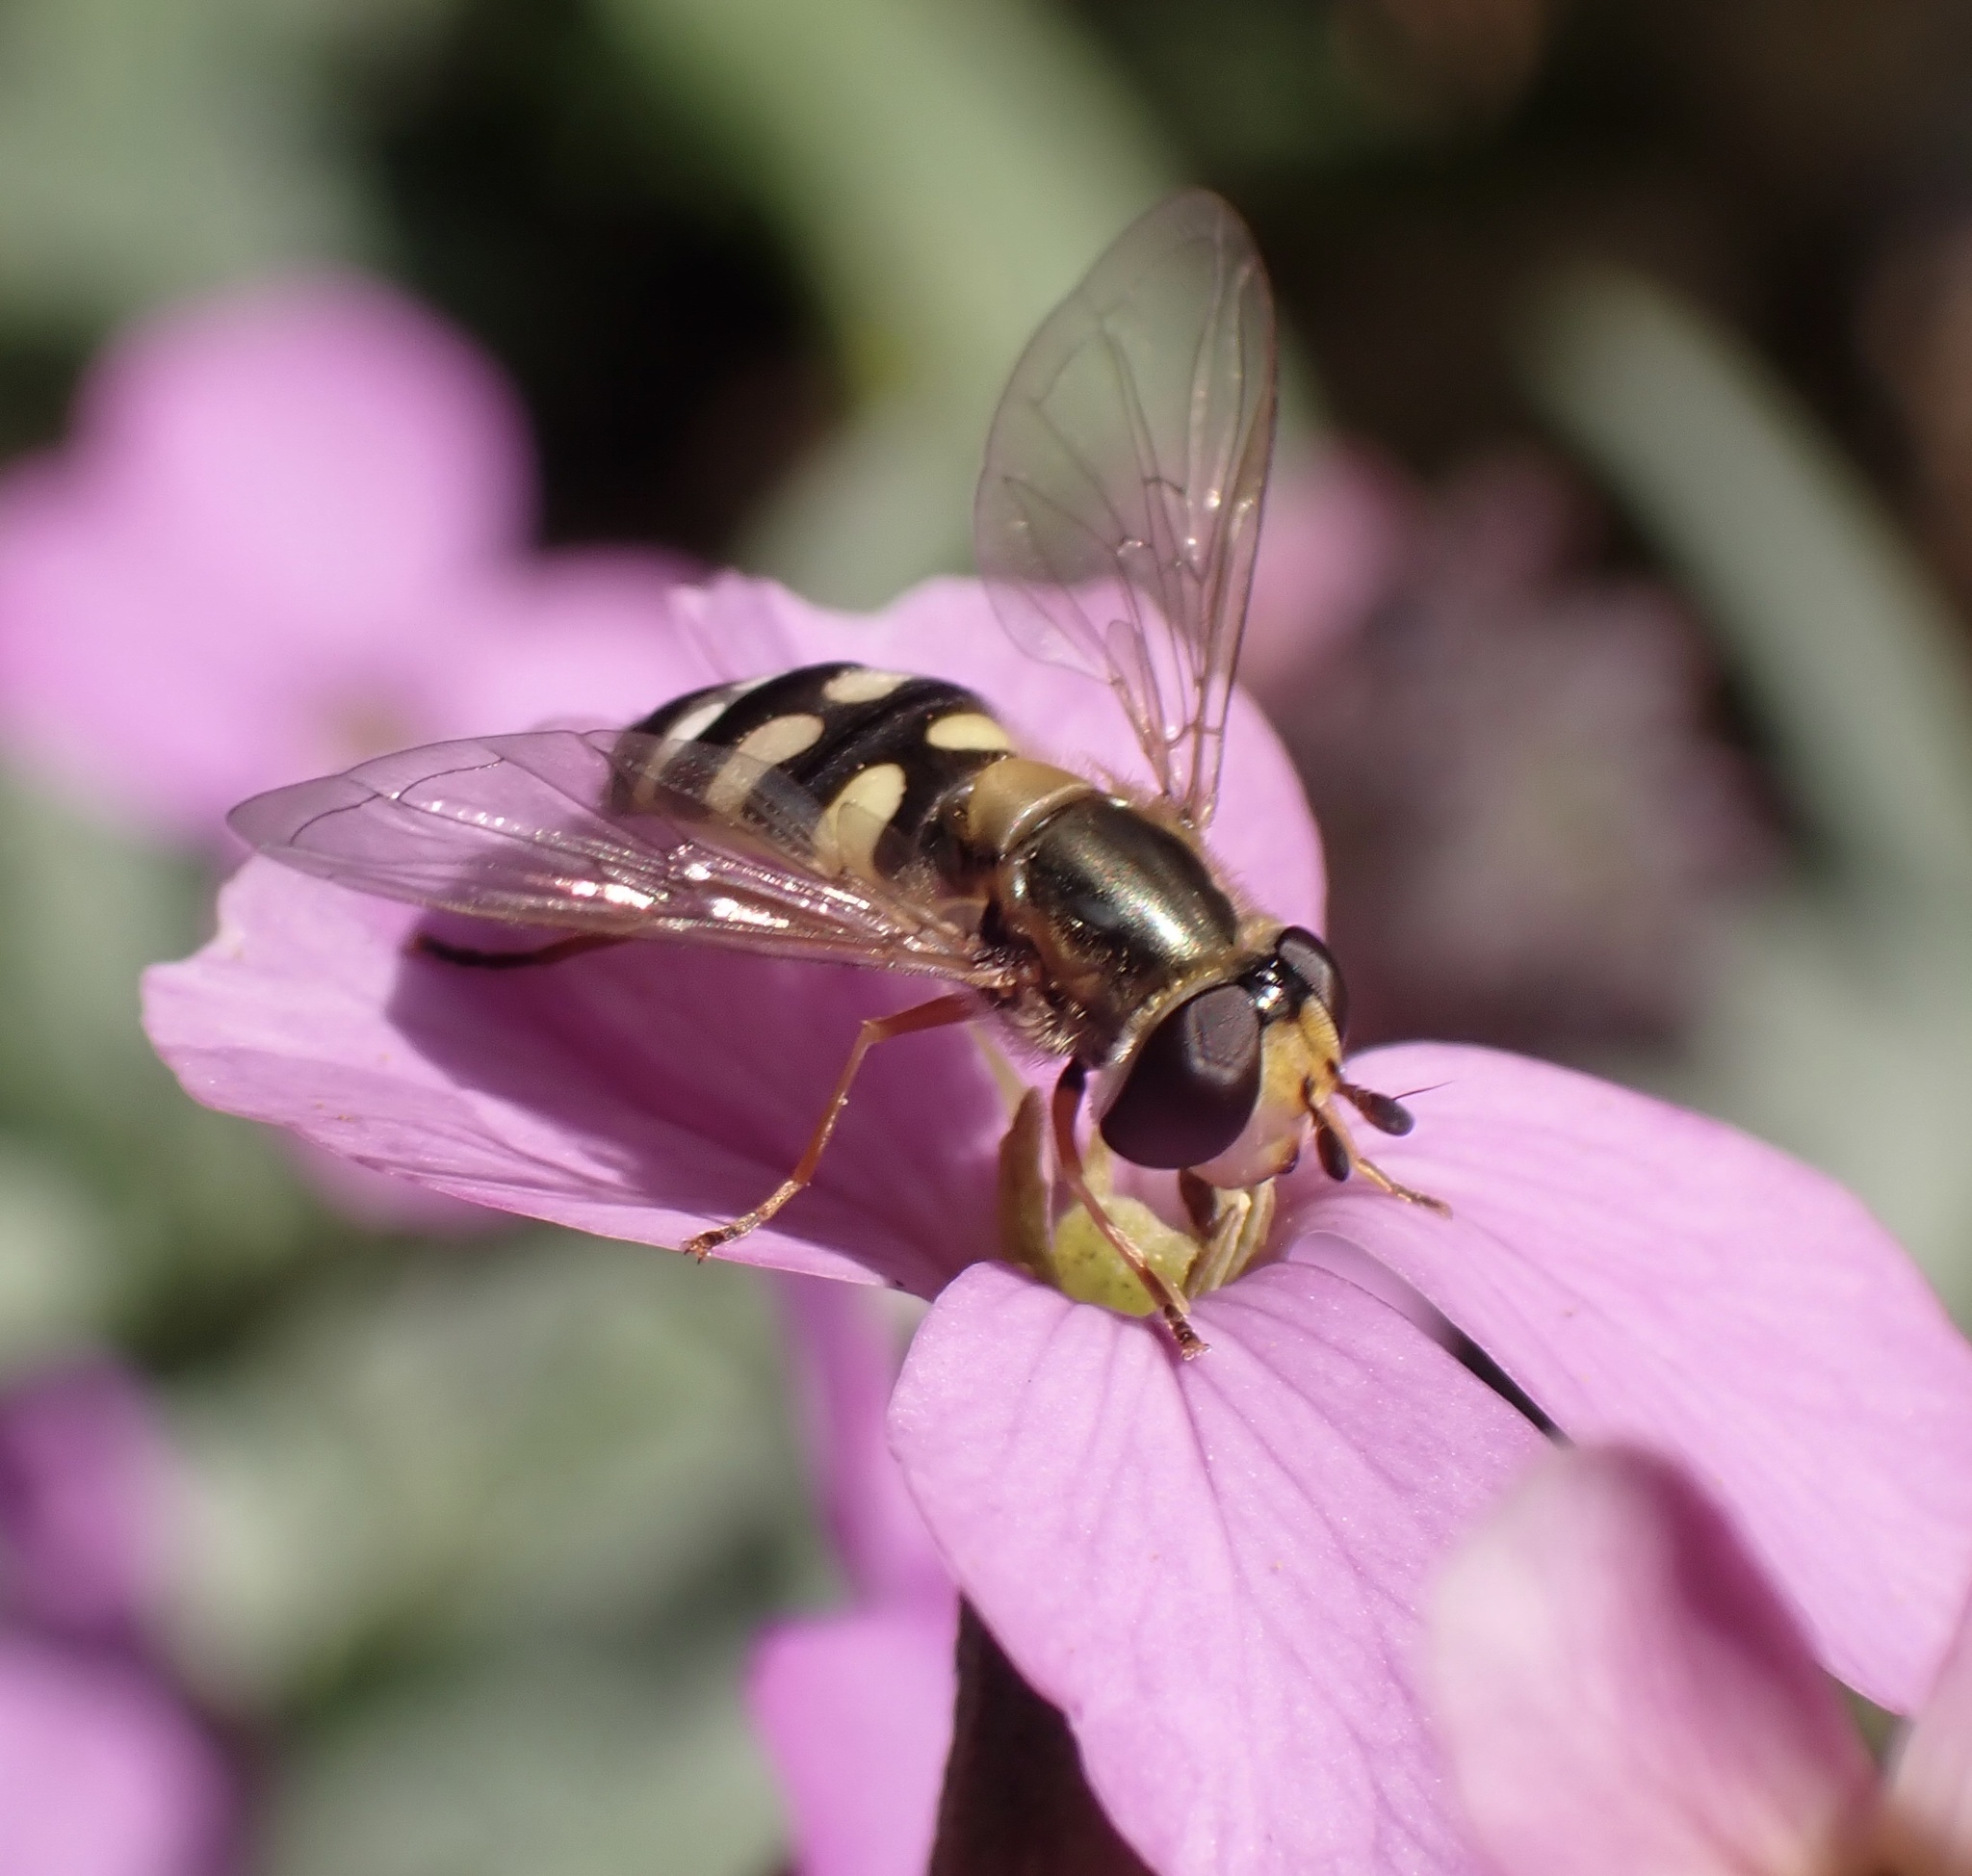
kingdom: Animalia
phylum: Arthropoda
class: Insecta
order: Diptera
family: Syrphidae
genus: Eupeodes
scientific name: Eupeodes corollae
